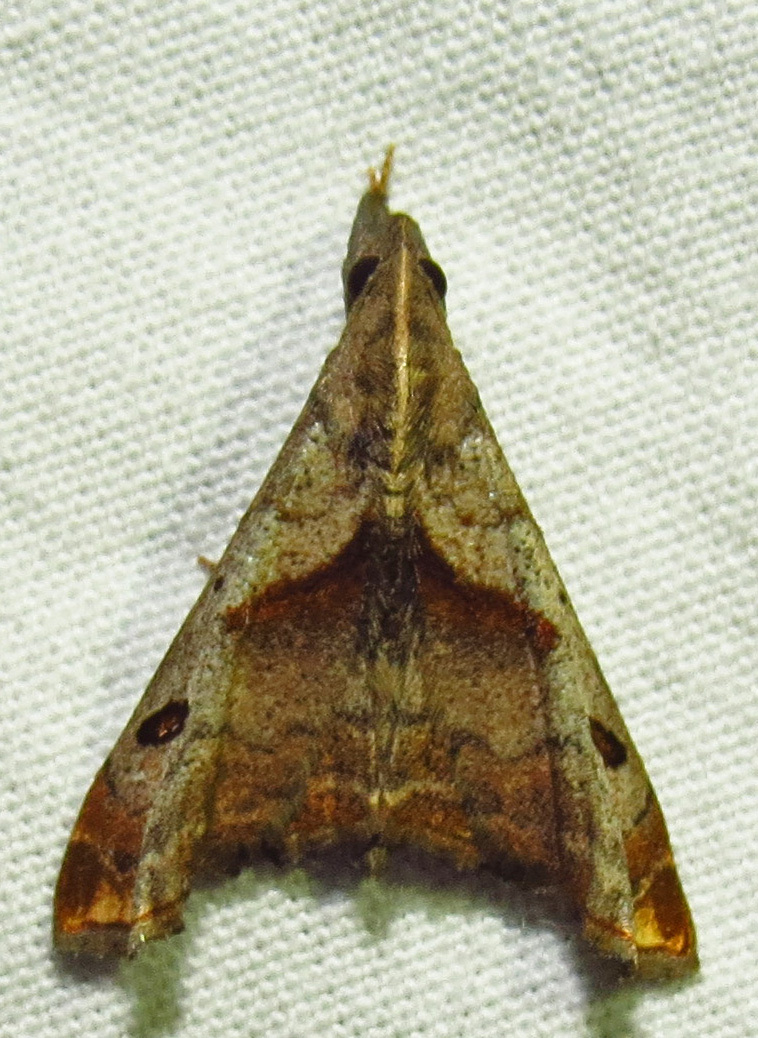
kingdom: Animalia
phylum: Arthropoda
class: Insecta
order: Lepidoptera
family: Erebidae
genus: Palthis
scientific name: Palthis angulalis
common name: Dark-spotted palthis moth
